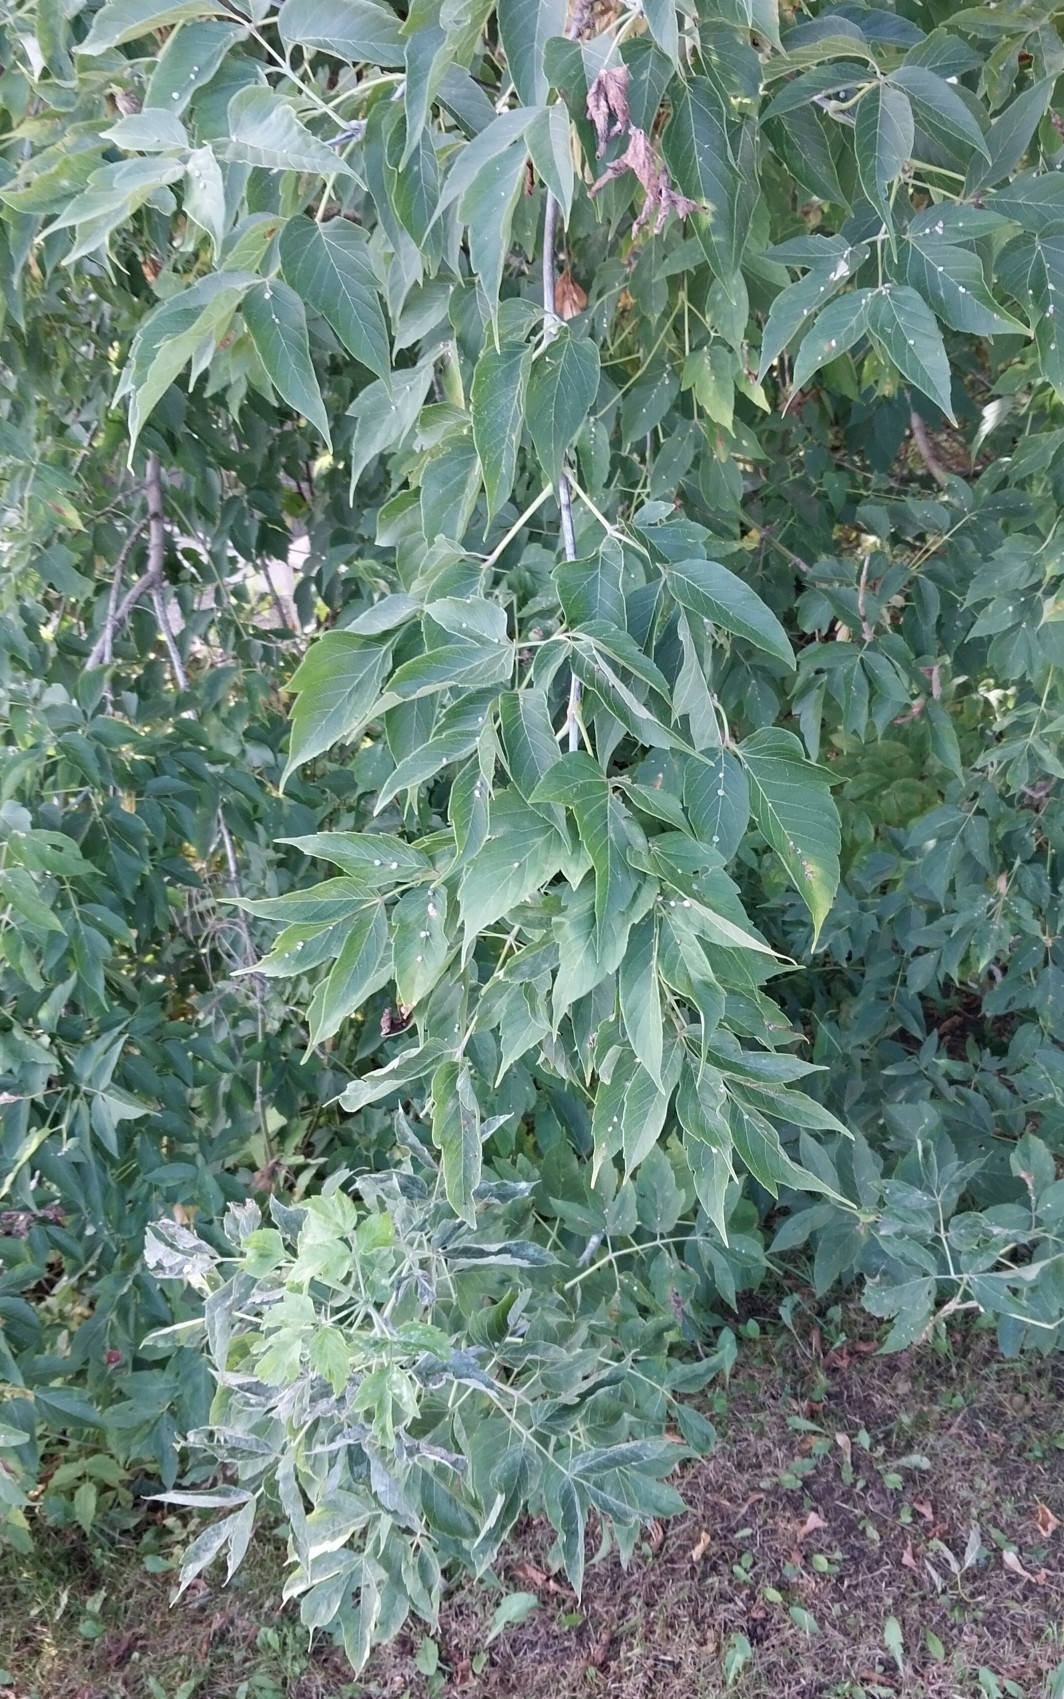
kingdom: Plantae
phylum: Tracheophyta
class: Magnoliopsida
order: Sapindales
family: Sapindaceae
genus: Acer
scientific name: Acer negundo
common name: Ashleaf maple
